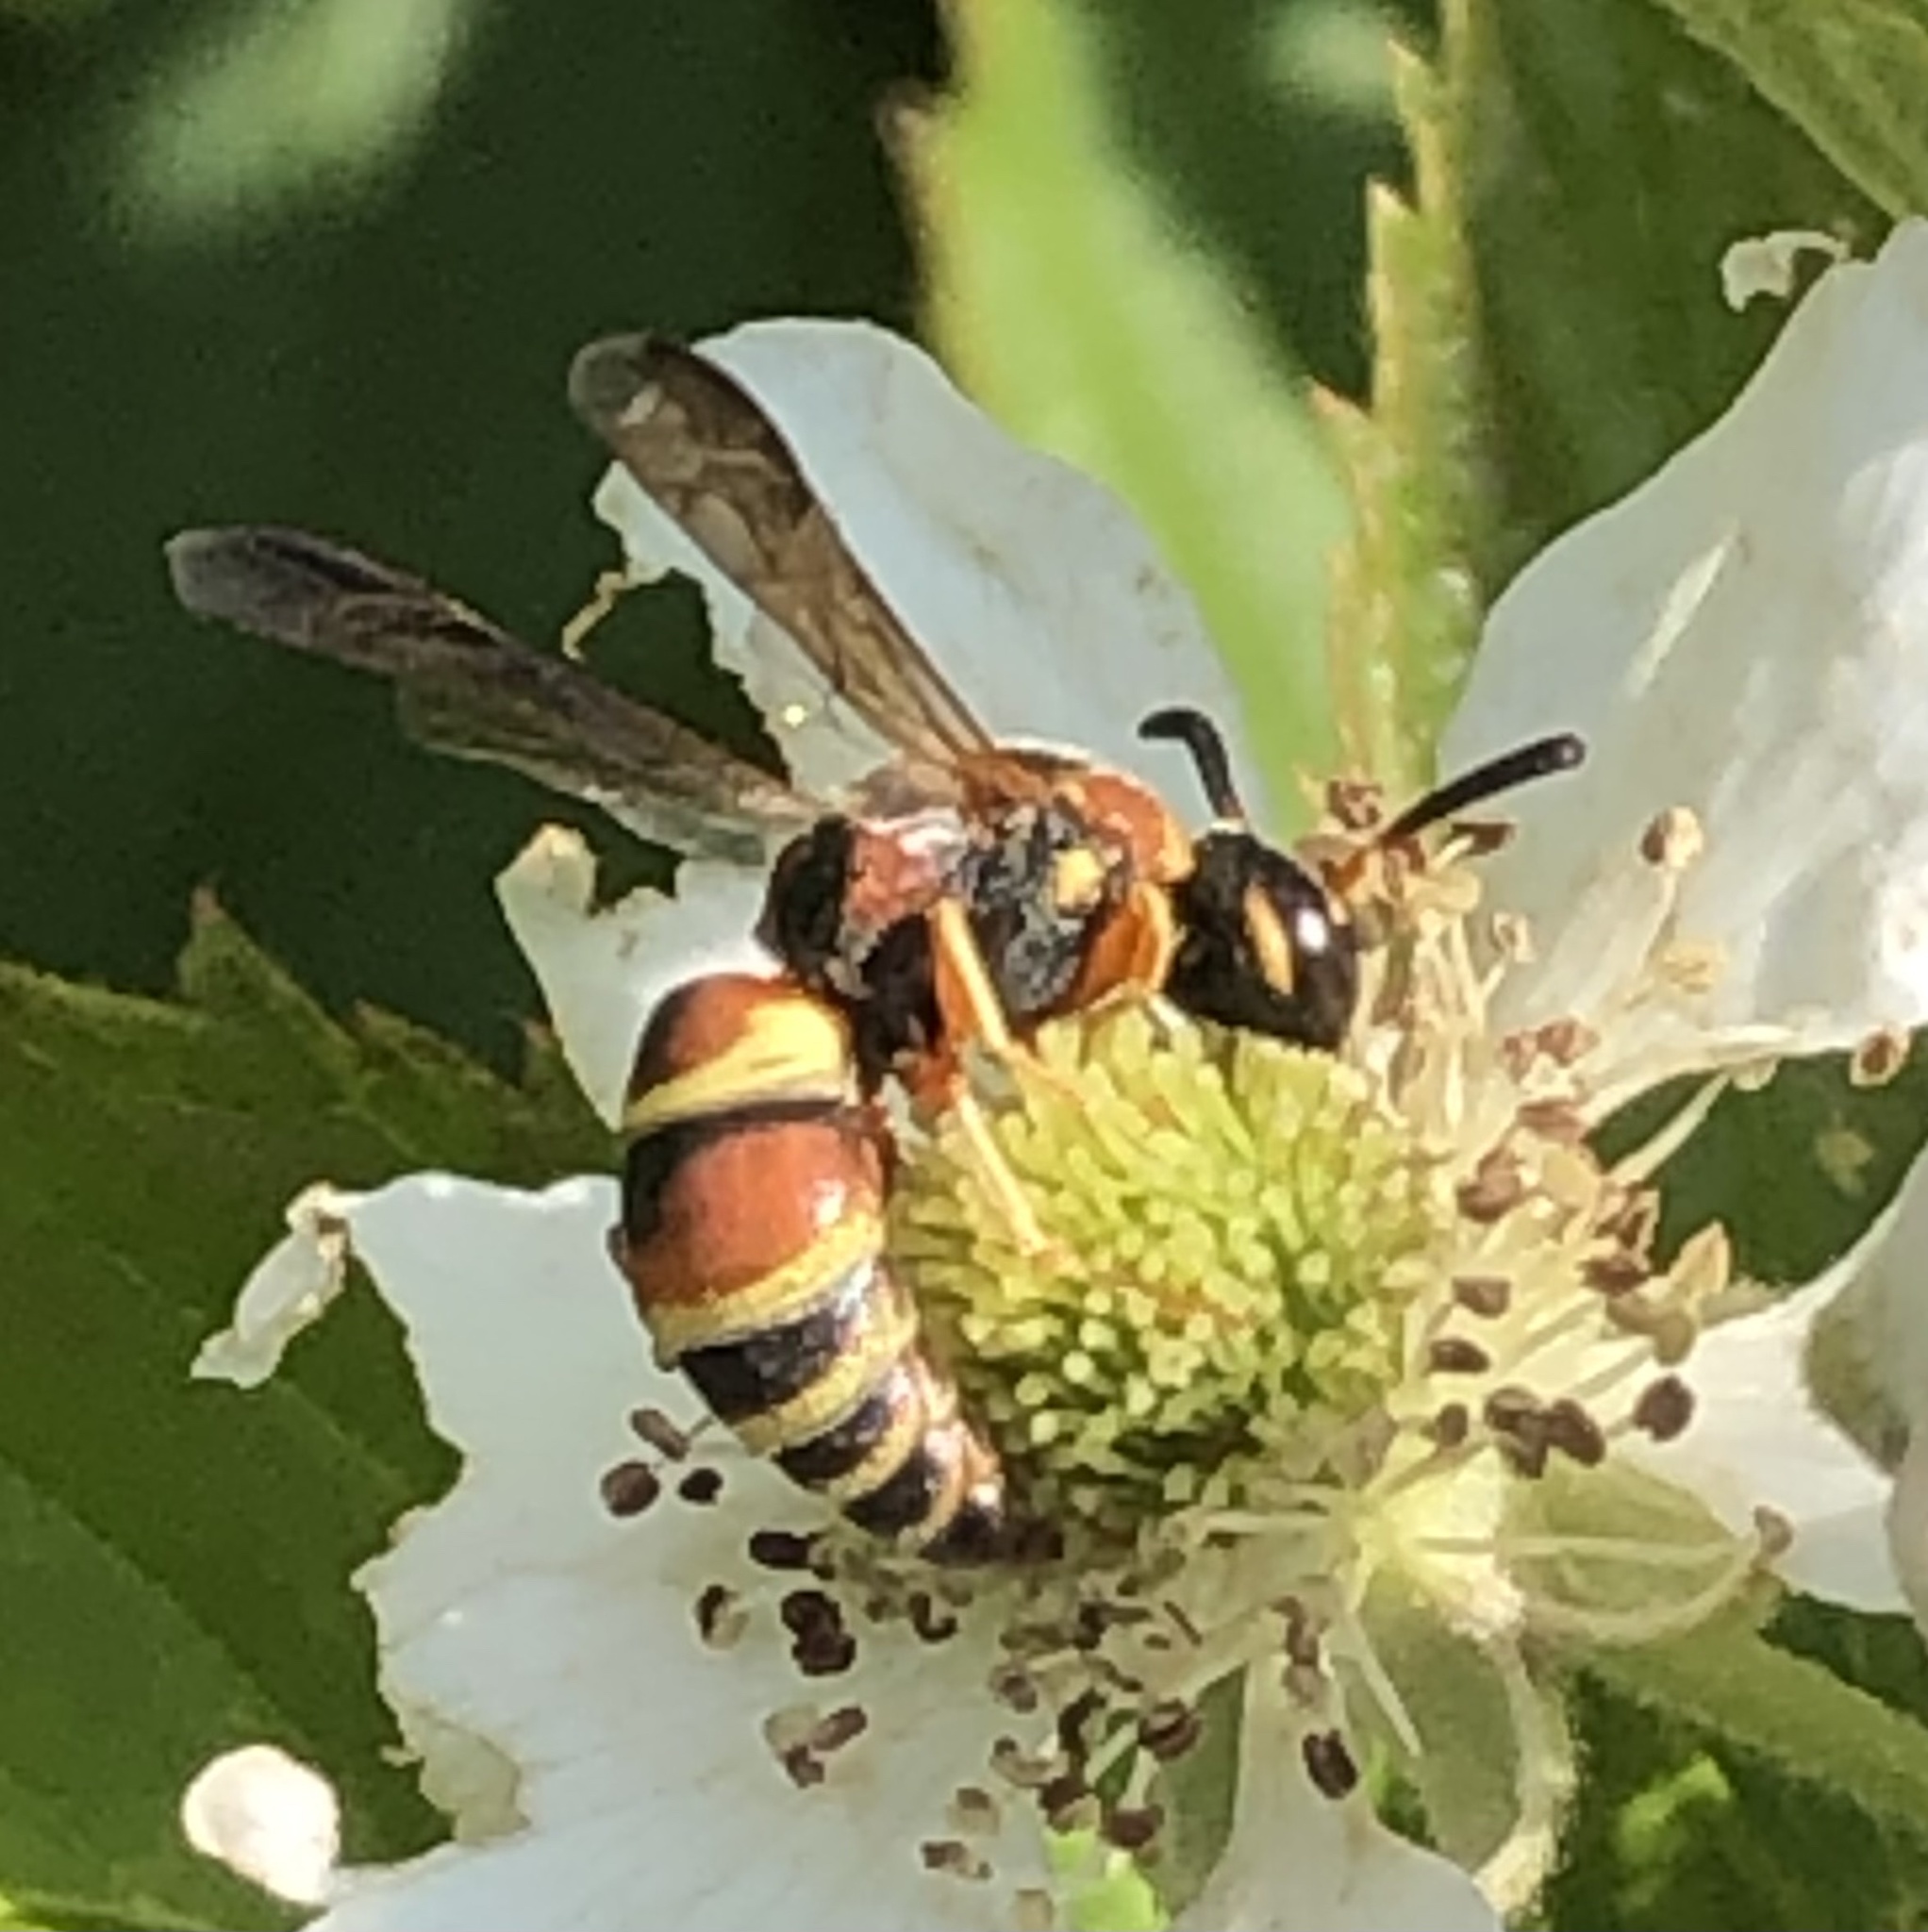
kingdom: Animalia
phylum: Arthropoda
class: Insecta
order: Hymenoptera
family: Eumenidae
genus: Euodynerus
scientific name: Euodynerus hidalgo
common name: Wasp
